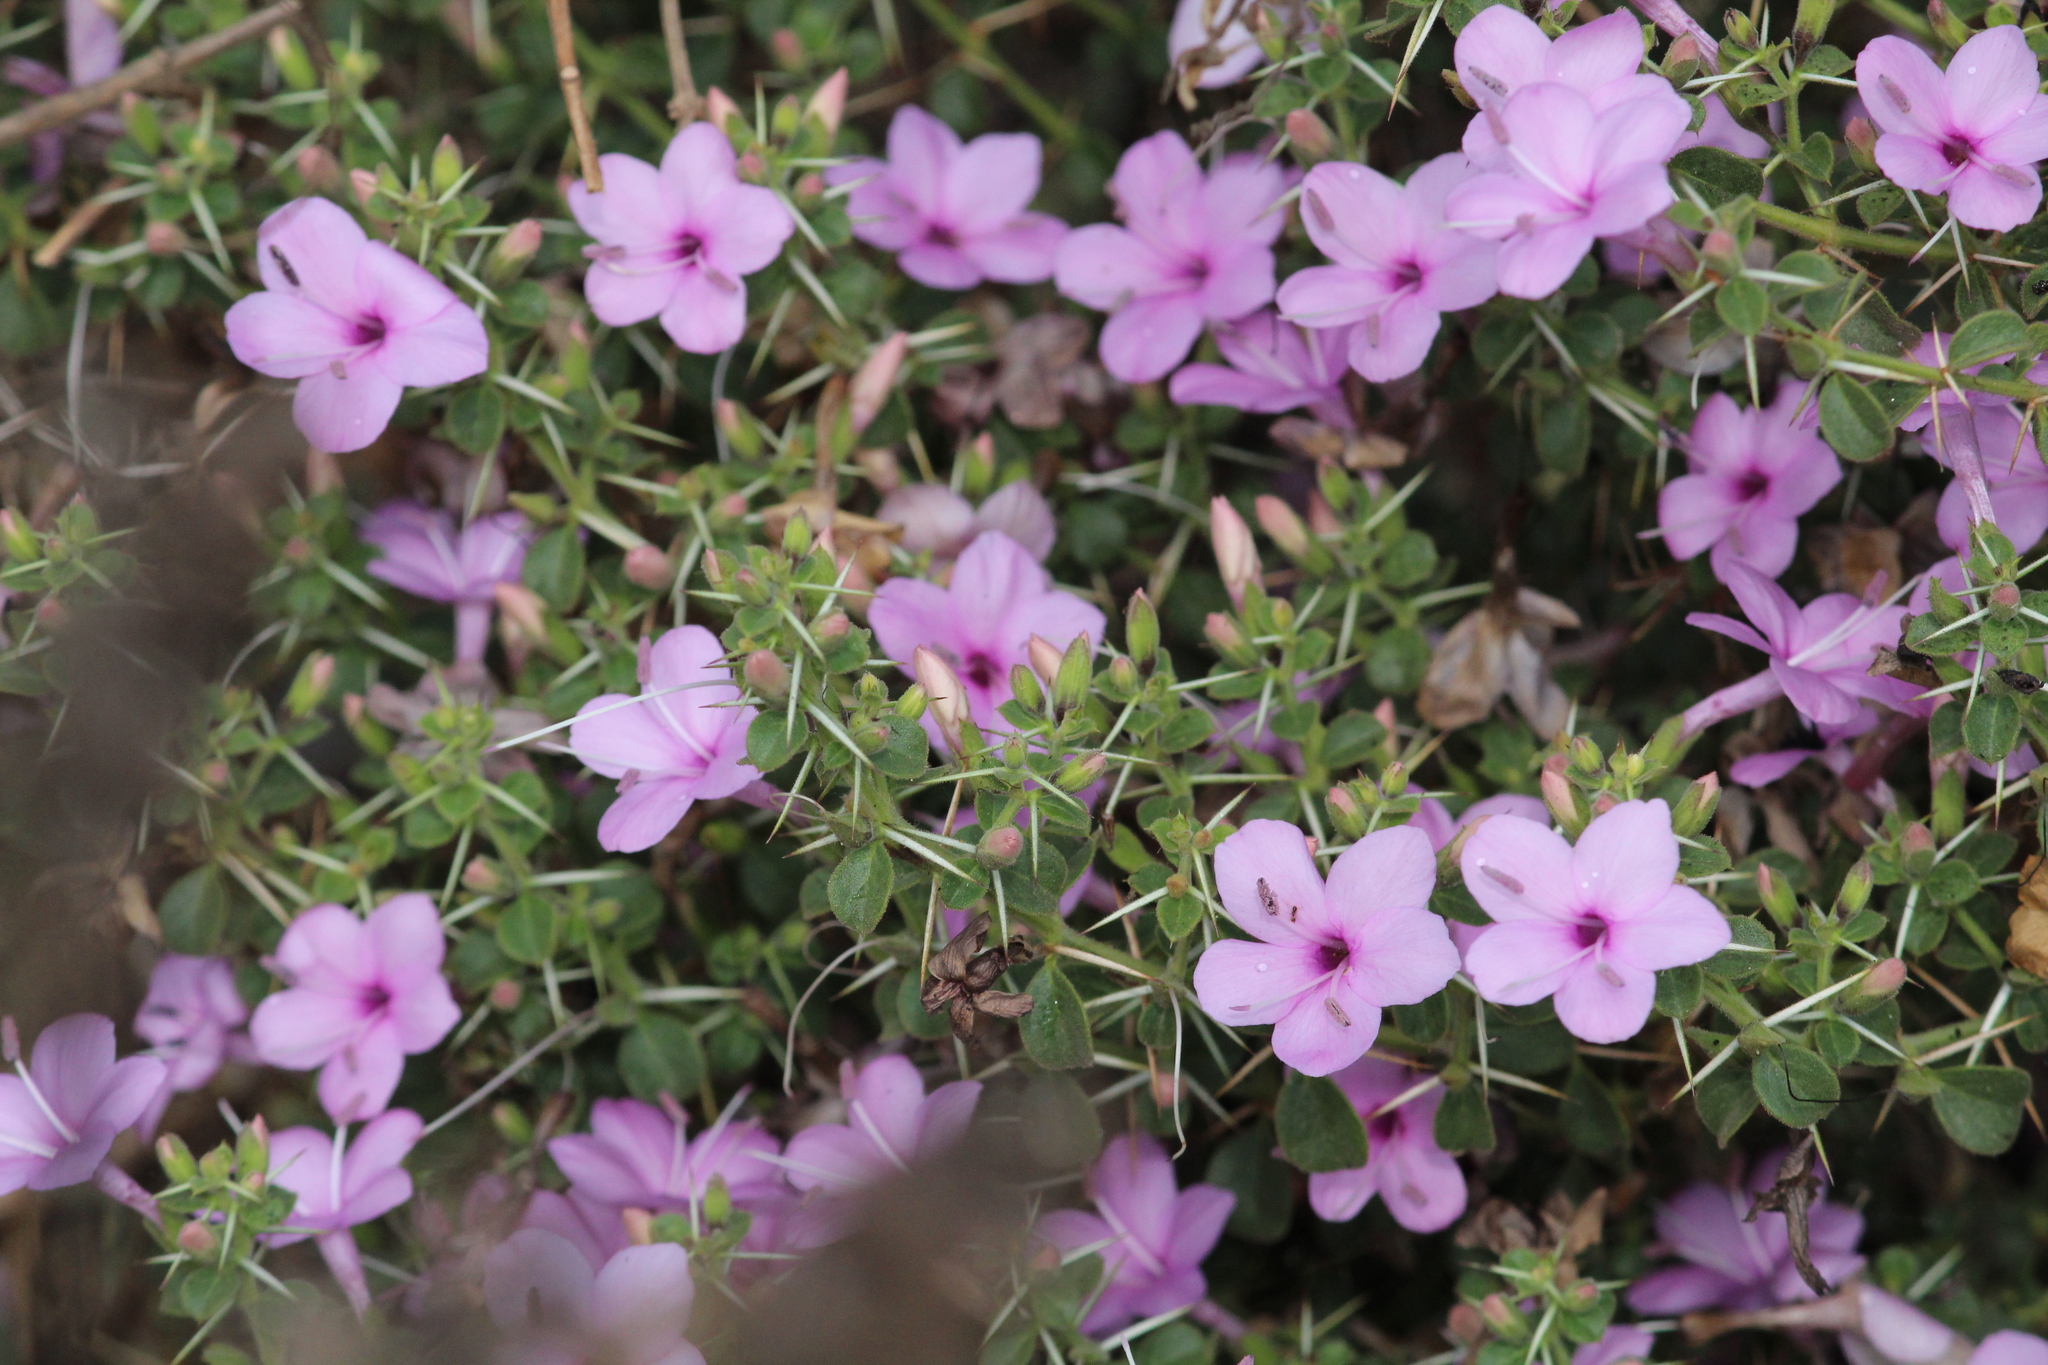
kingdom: Plantae
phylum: Tracheophyta
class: Magnoliopsida
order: Lamiales
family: Acanthaceae
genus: Barleria
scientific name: Barleria mysorensis
